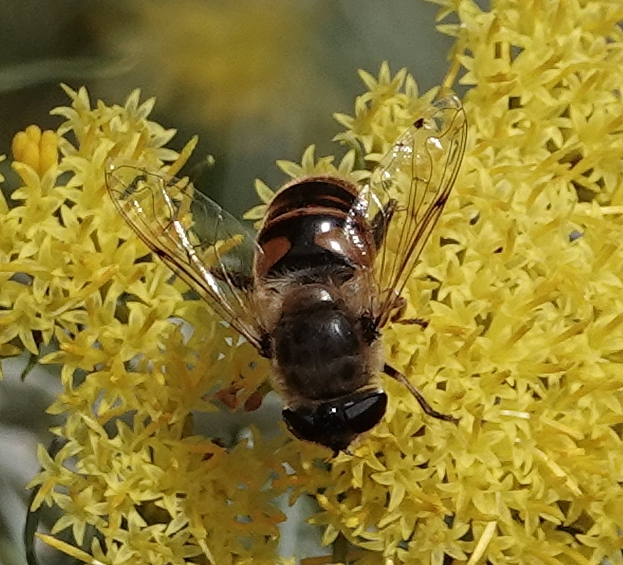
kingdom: Animalia
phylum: Arthropoda
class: Insecta
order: Diptera
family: Syrphidae
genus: Eristalis
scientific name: Eristalis tenax
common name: Drone fly
